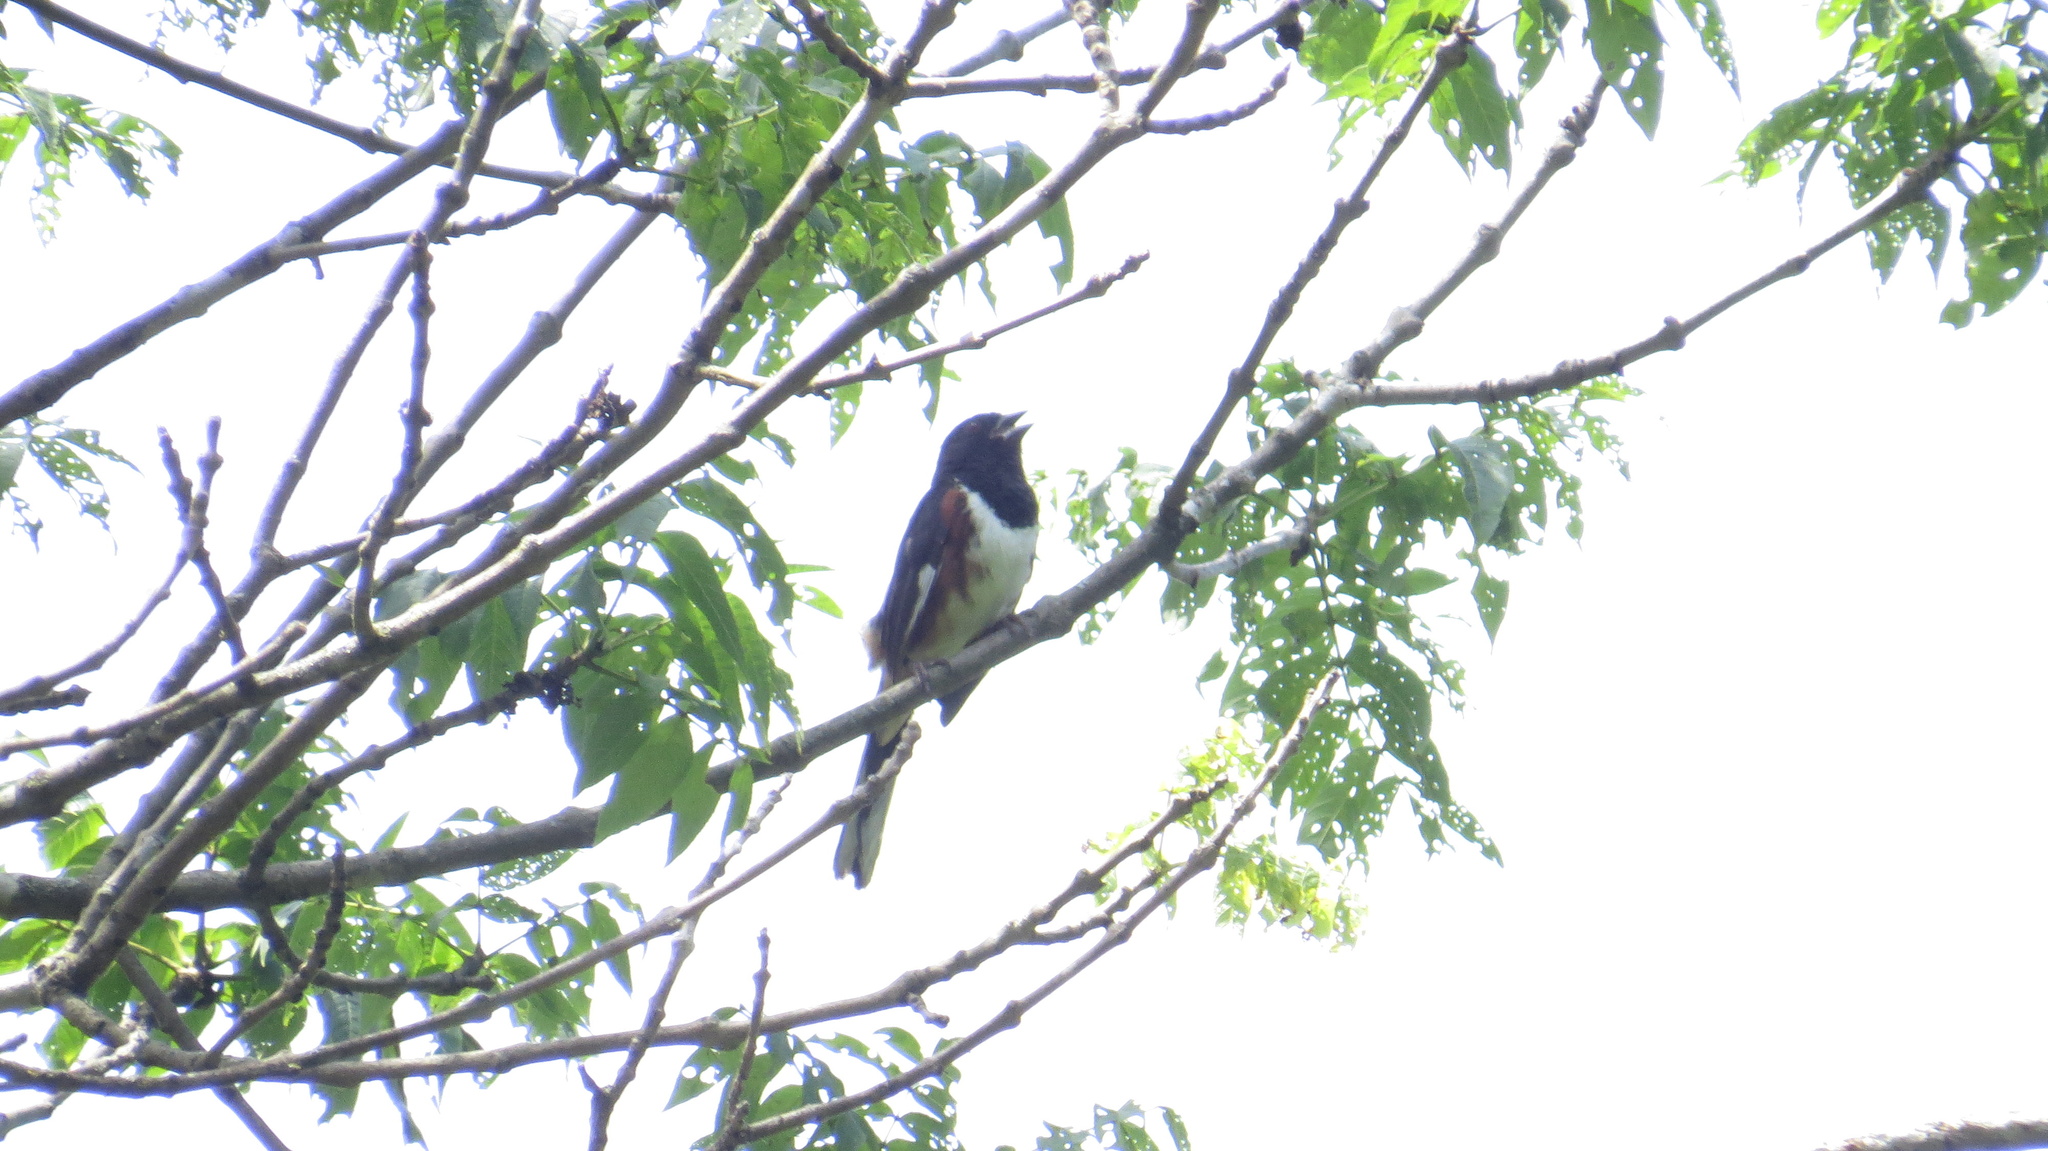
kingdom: Animalia
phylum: Chordata
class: Aves
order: Passeriformes
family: Passerellidae
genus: Pipilo
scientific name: Pipilo erythrophthalmus
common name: Eastern towhee
